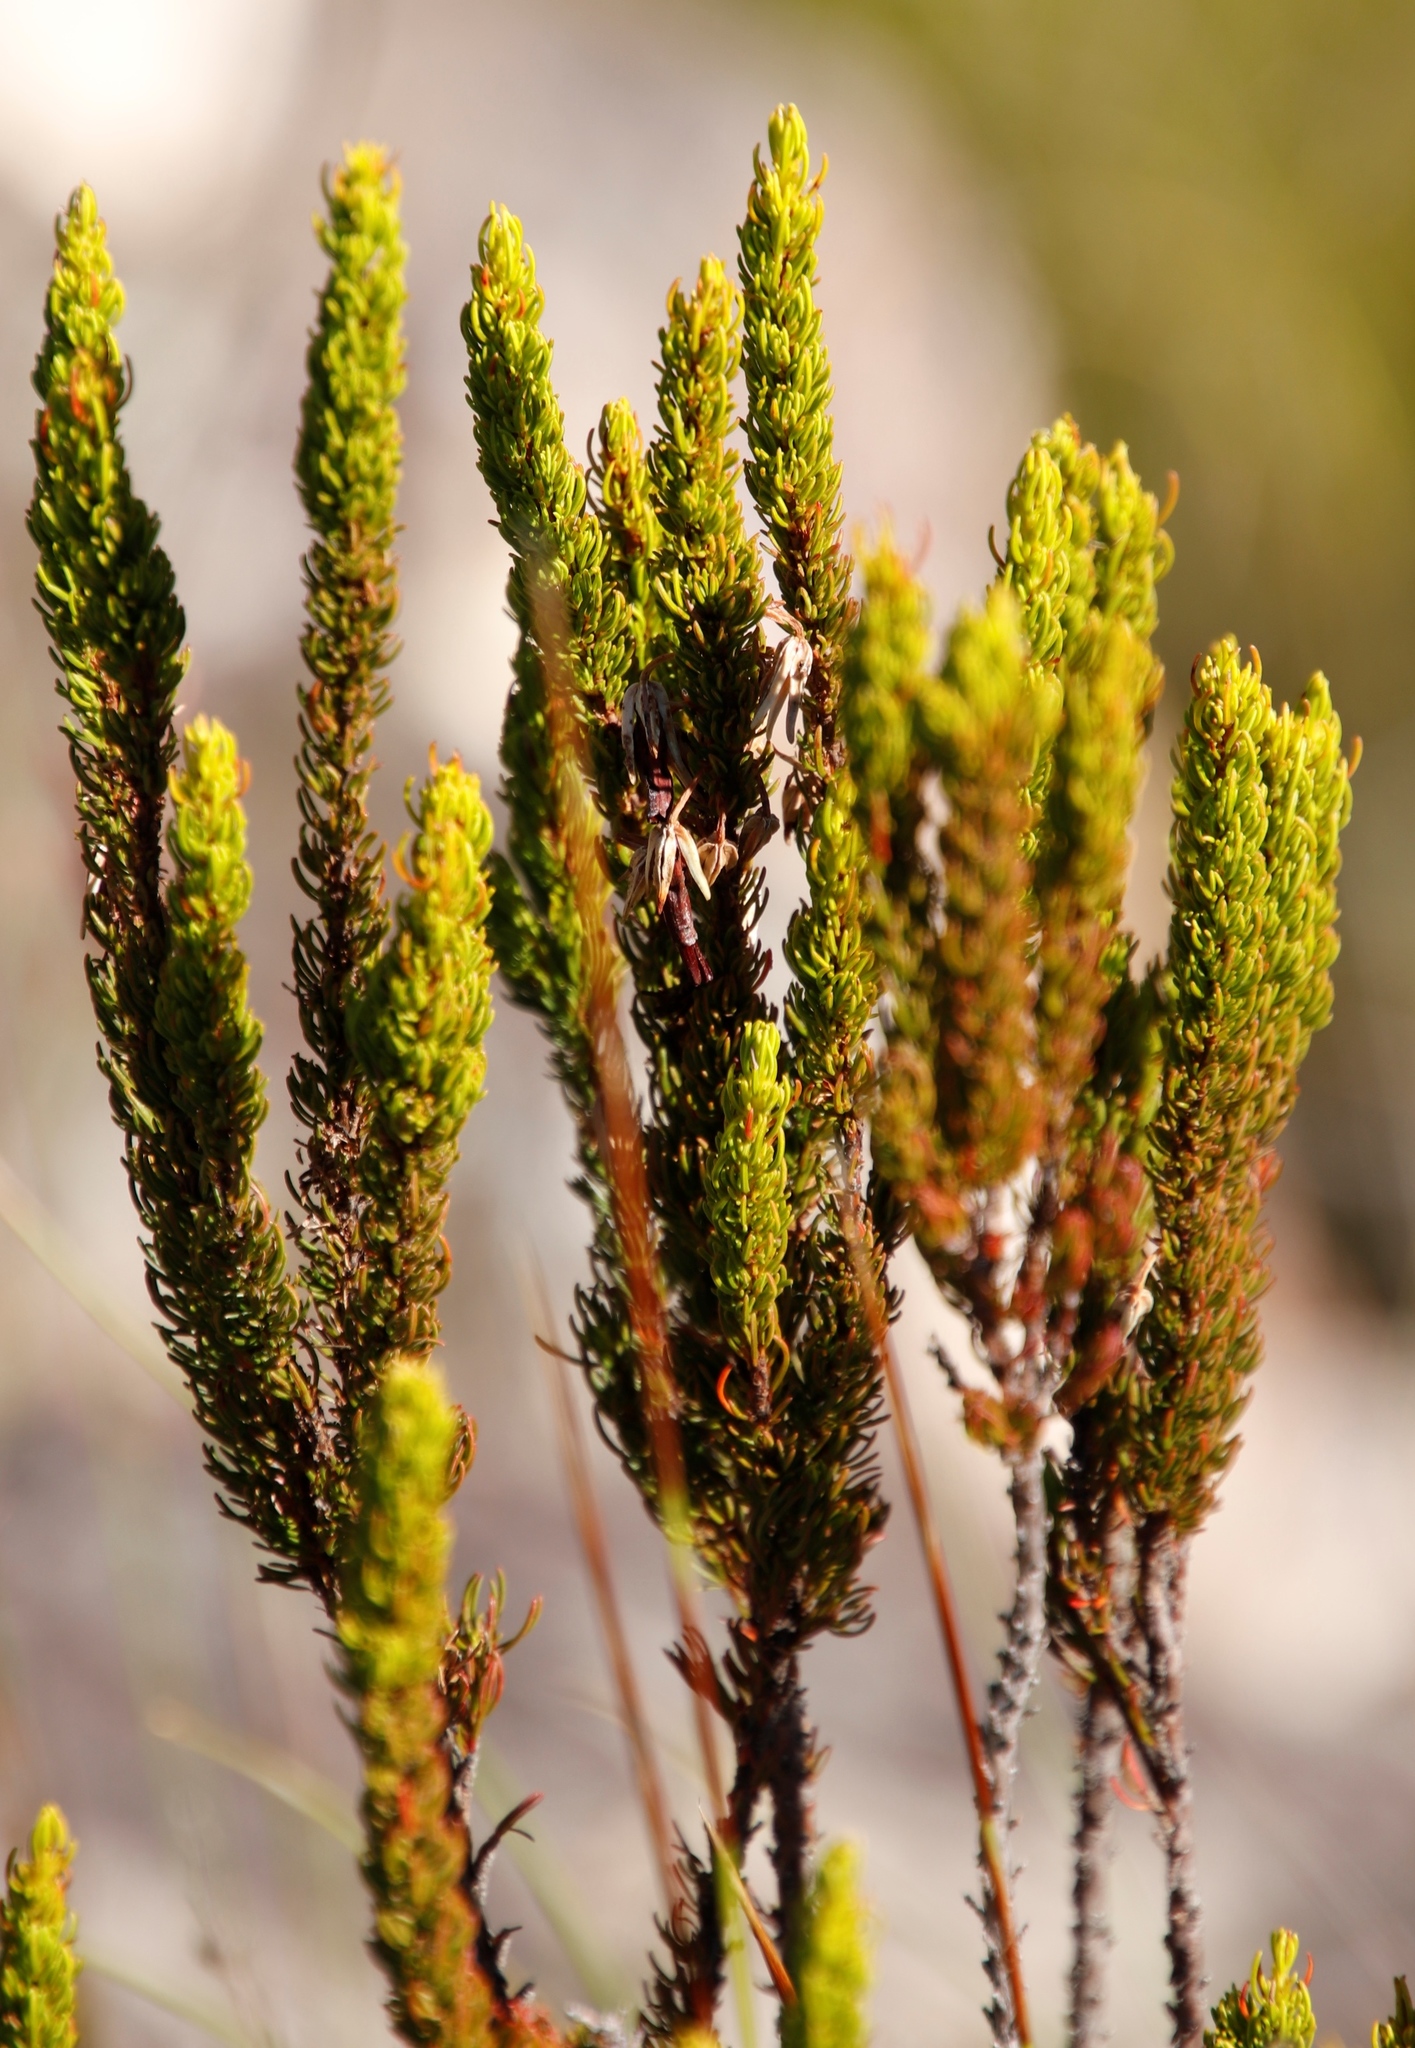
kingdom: Plantae
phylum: Tracheophyta
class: Magnoliopsida
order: Ericales
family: Ericaceae
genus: Erica
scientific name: Erica plukenetii
